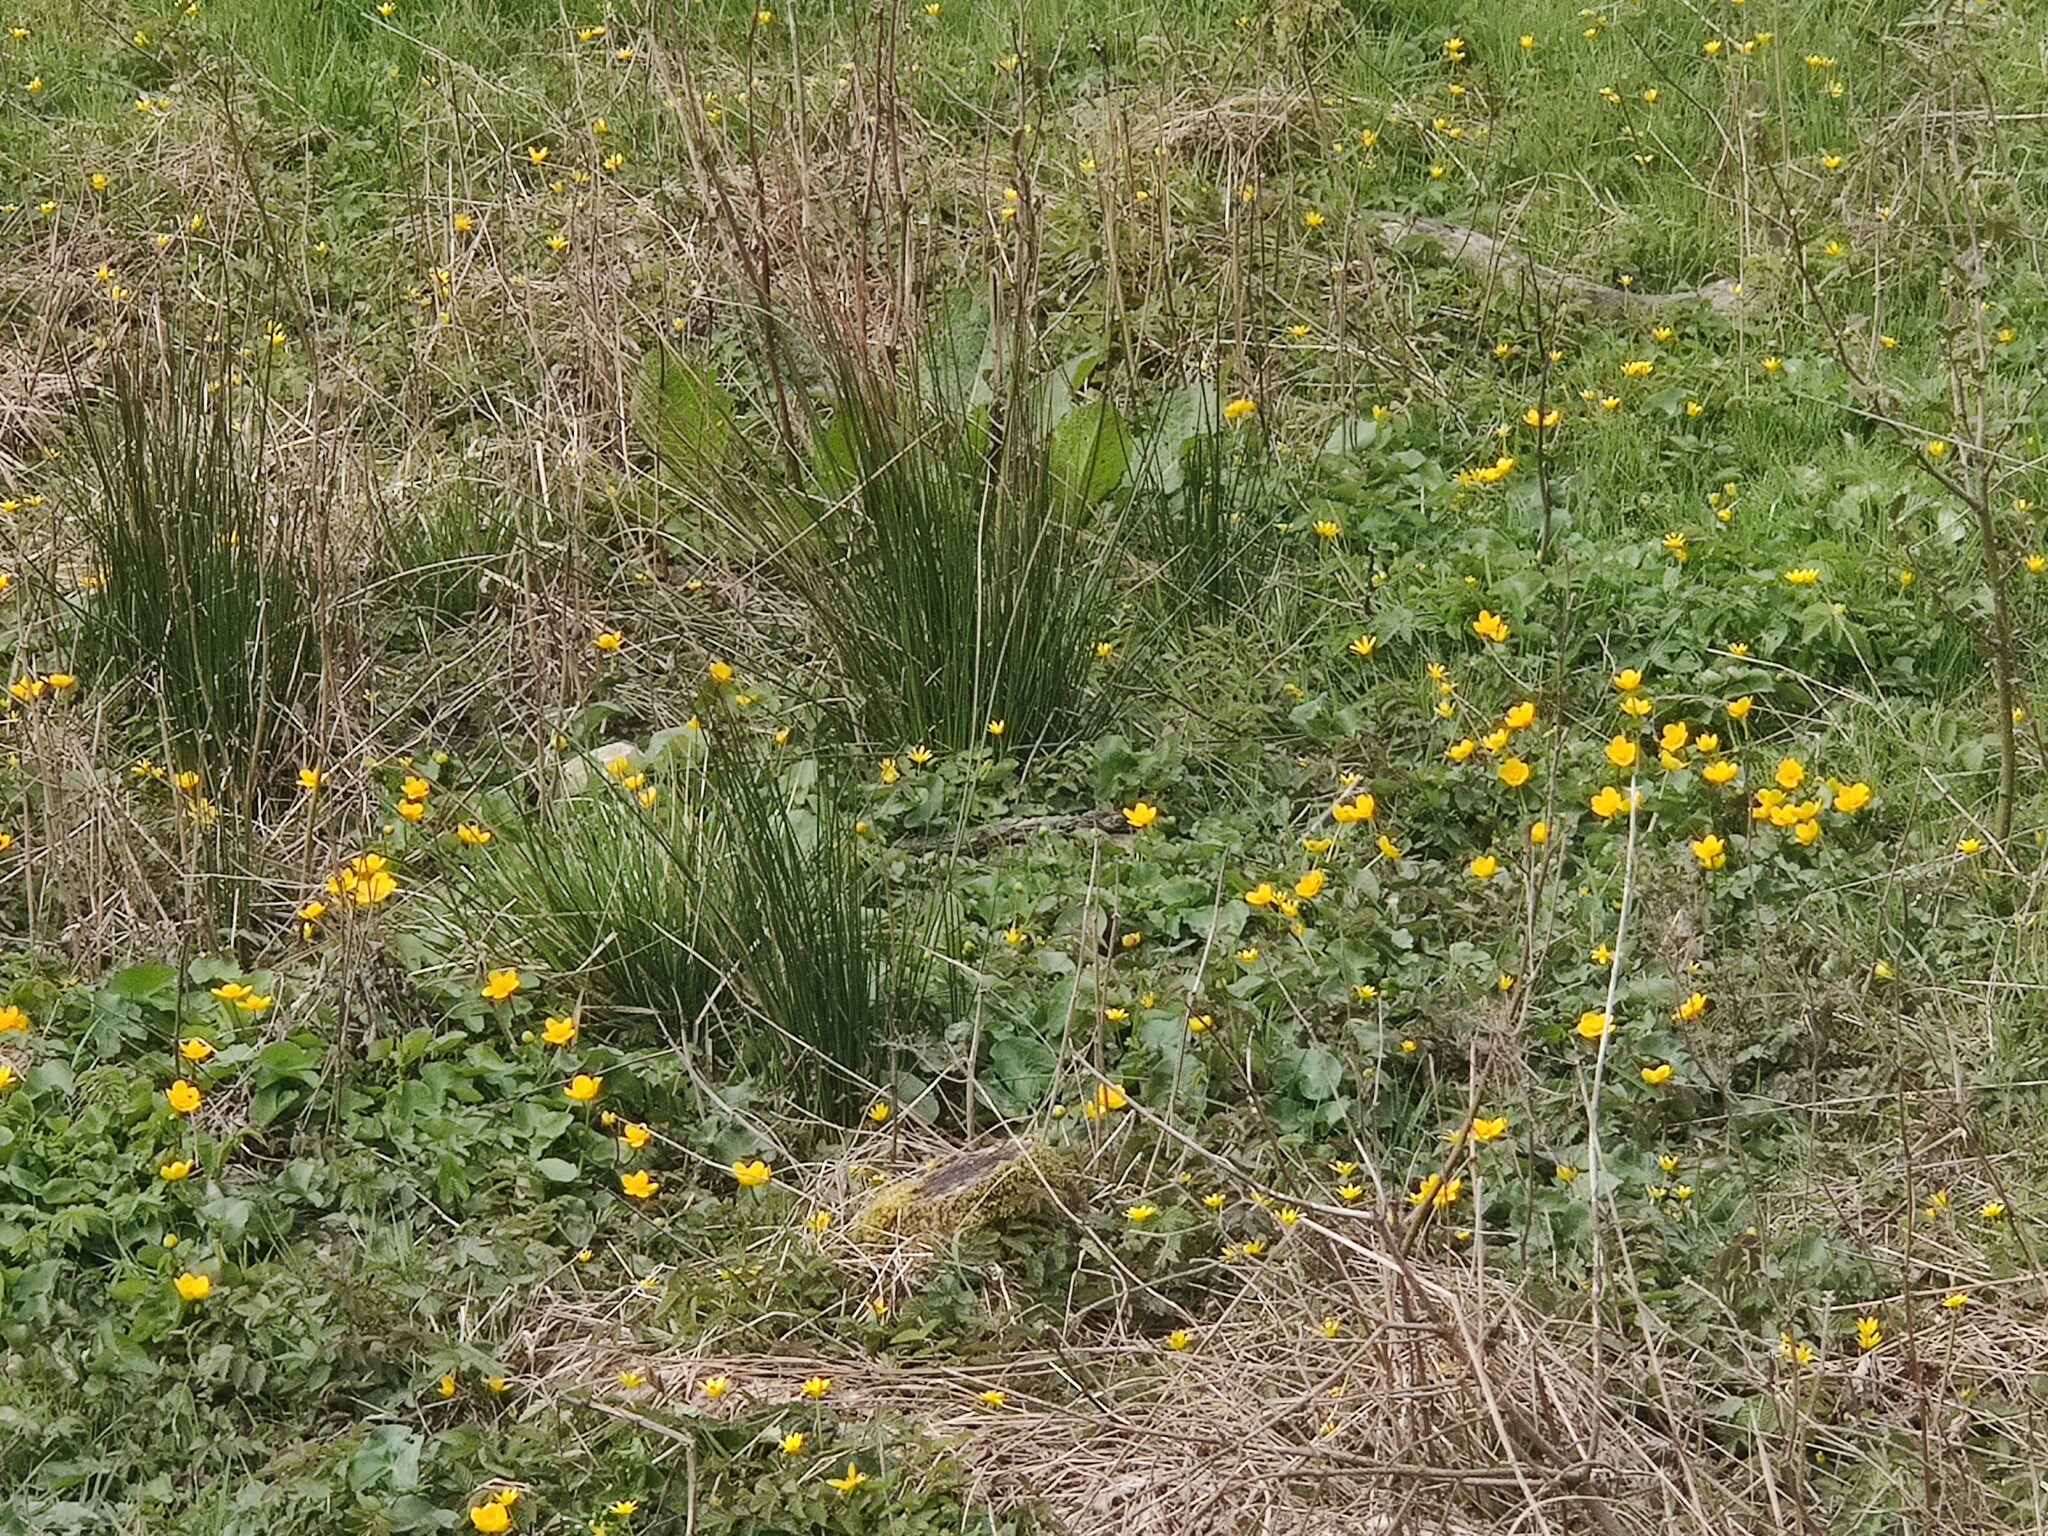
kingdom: Plantae
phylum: Tracheophyta
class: Magnoliopsida
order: Ranunculales
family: Ranunculaceae
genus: Caltha
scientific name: Caltha palustris
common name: Marsh marigold
